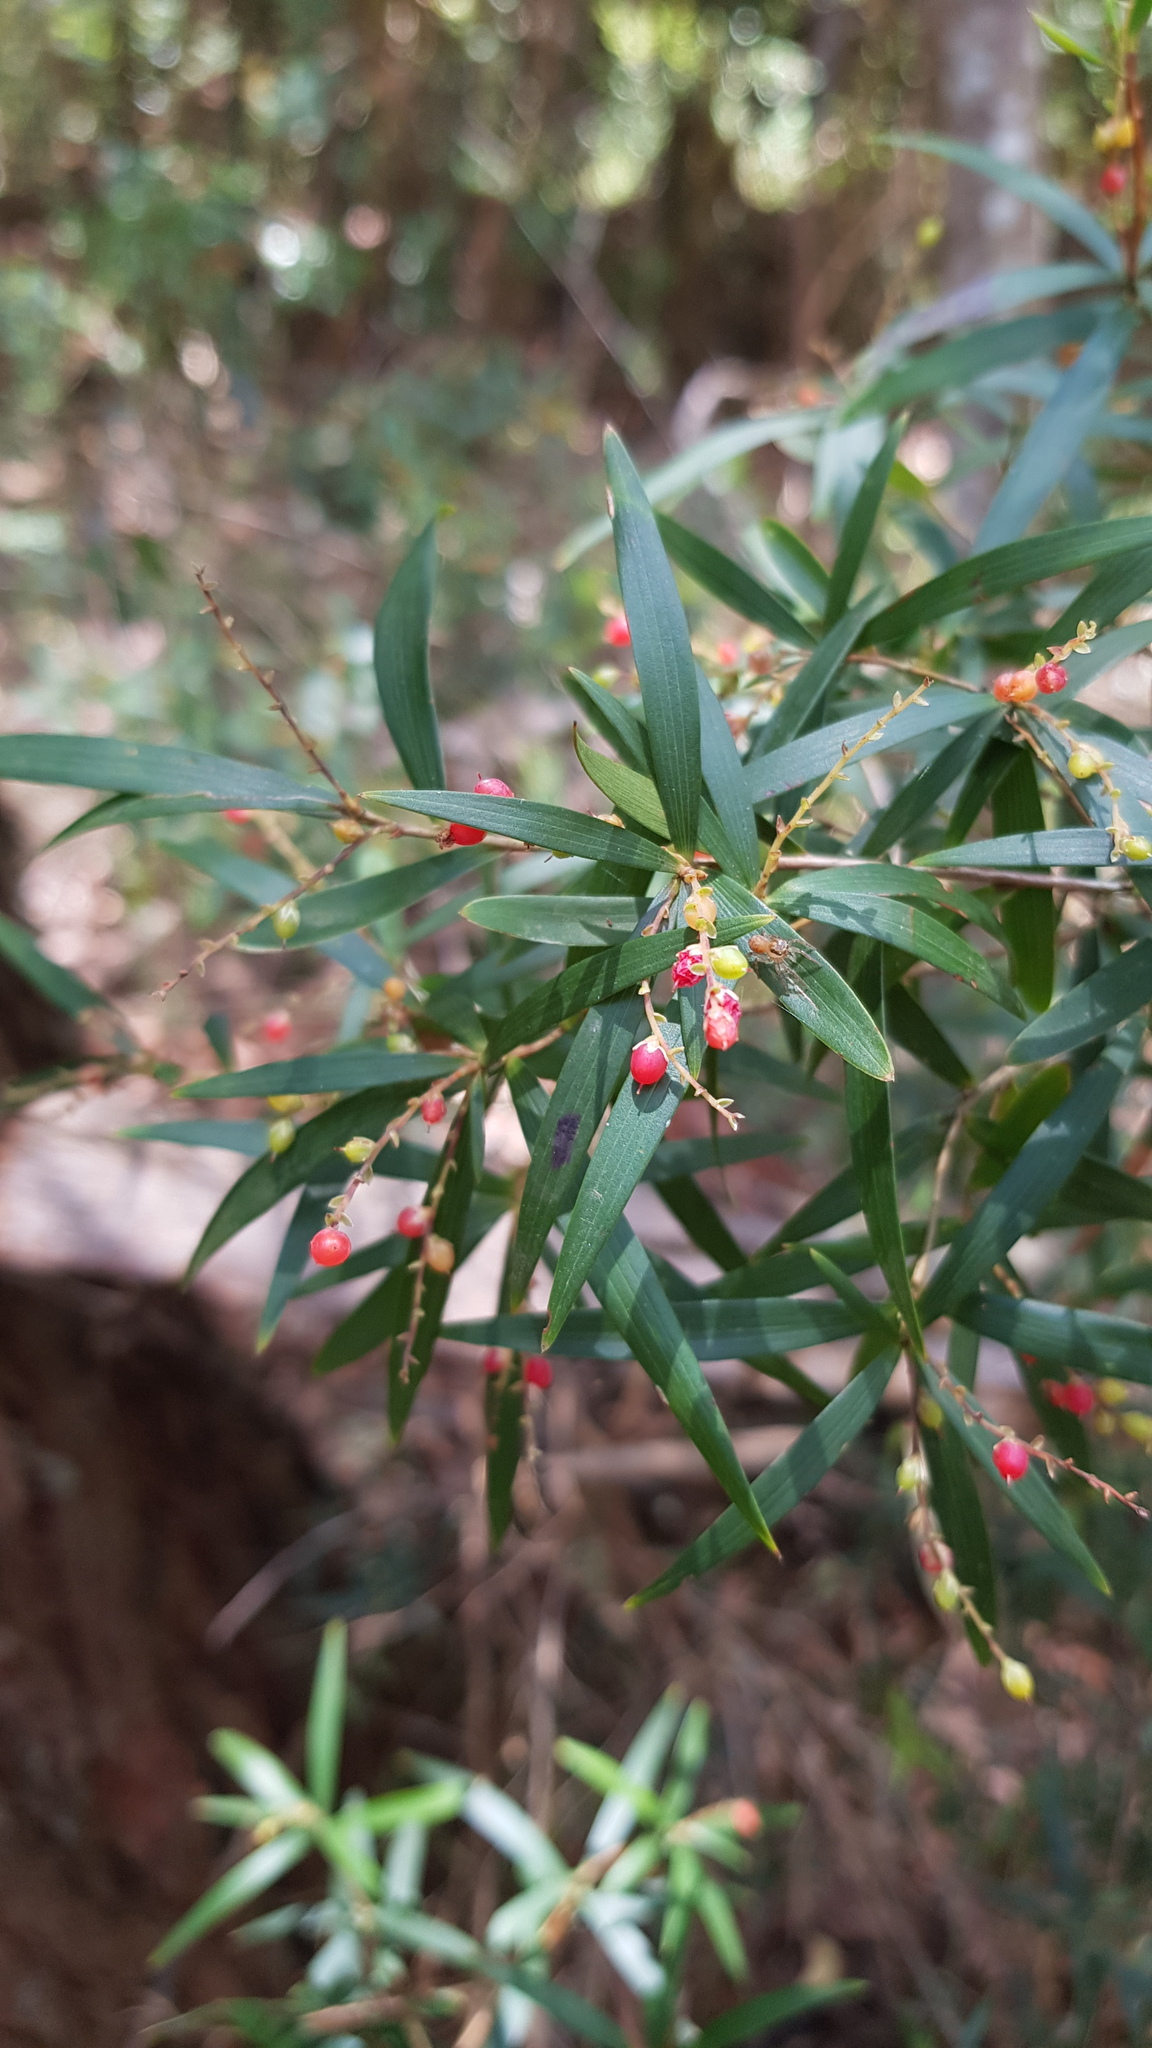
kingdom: Plantae
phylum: Tracheophyta
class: Magnoliopsida
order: Ericales
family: Ericaceae
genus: Leucopogon
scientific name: Leucopogon lanceolatus
